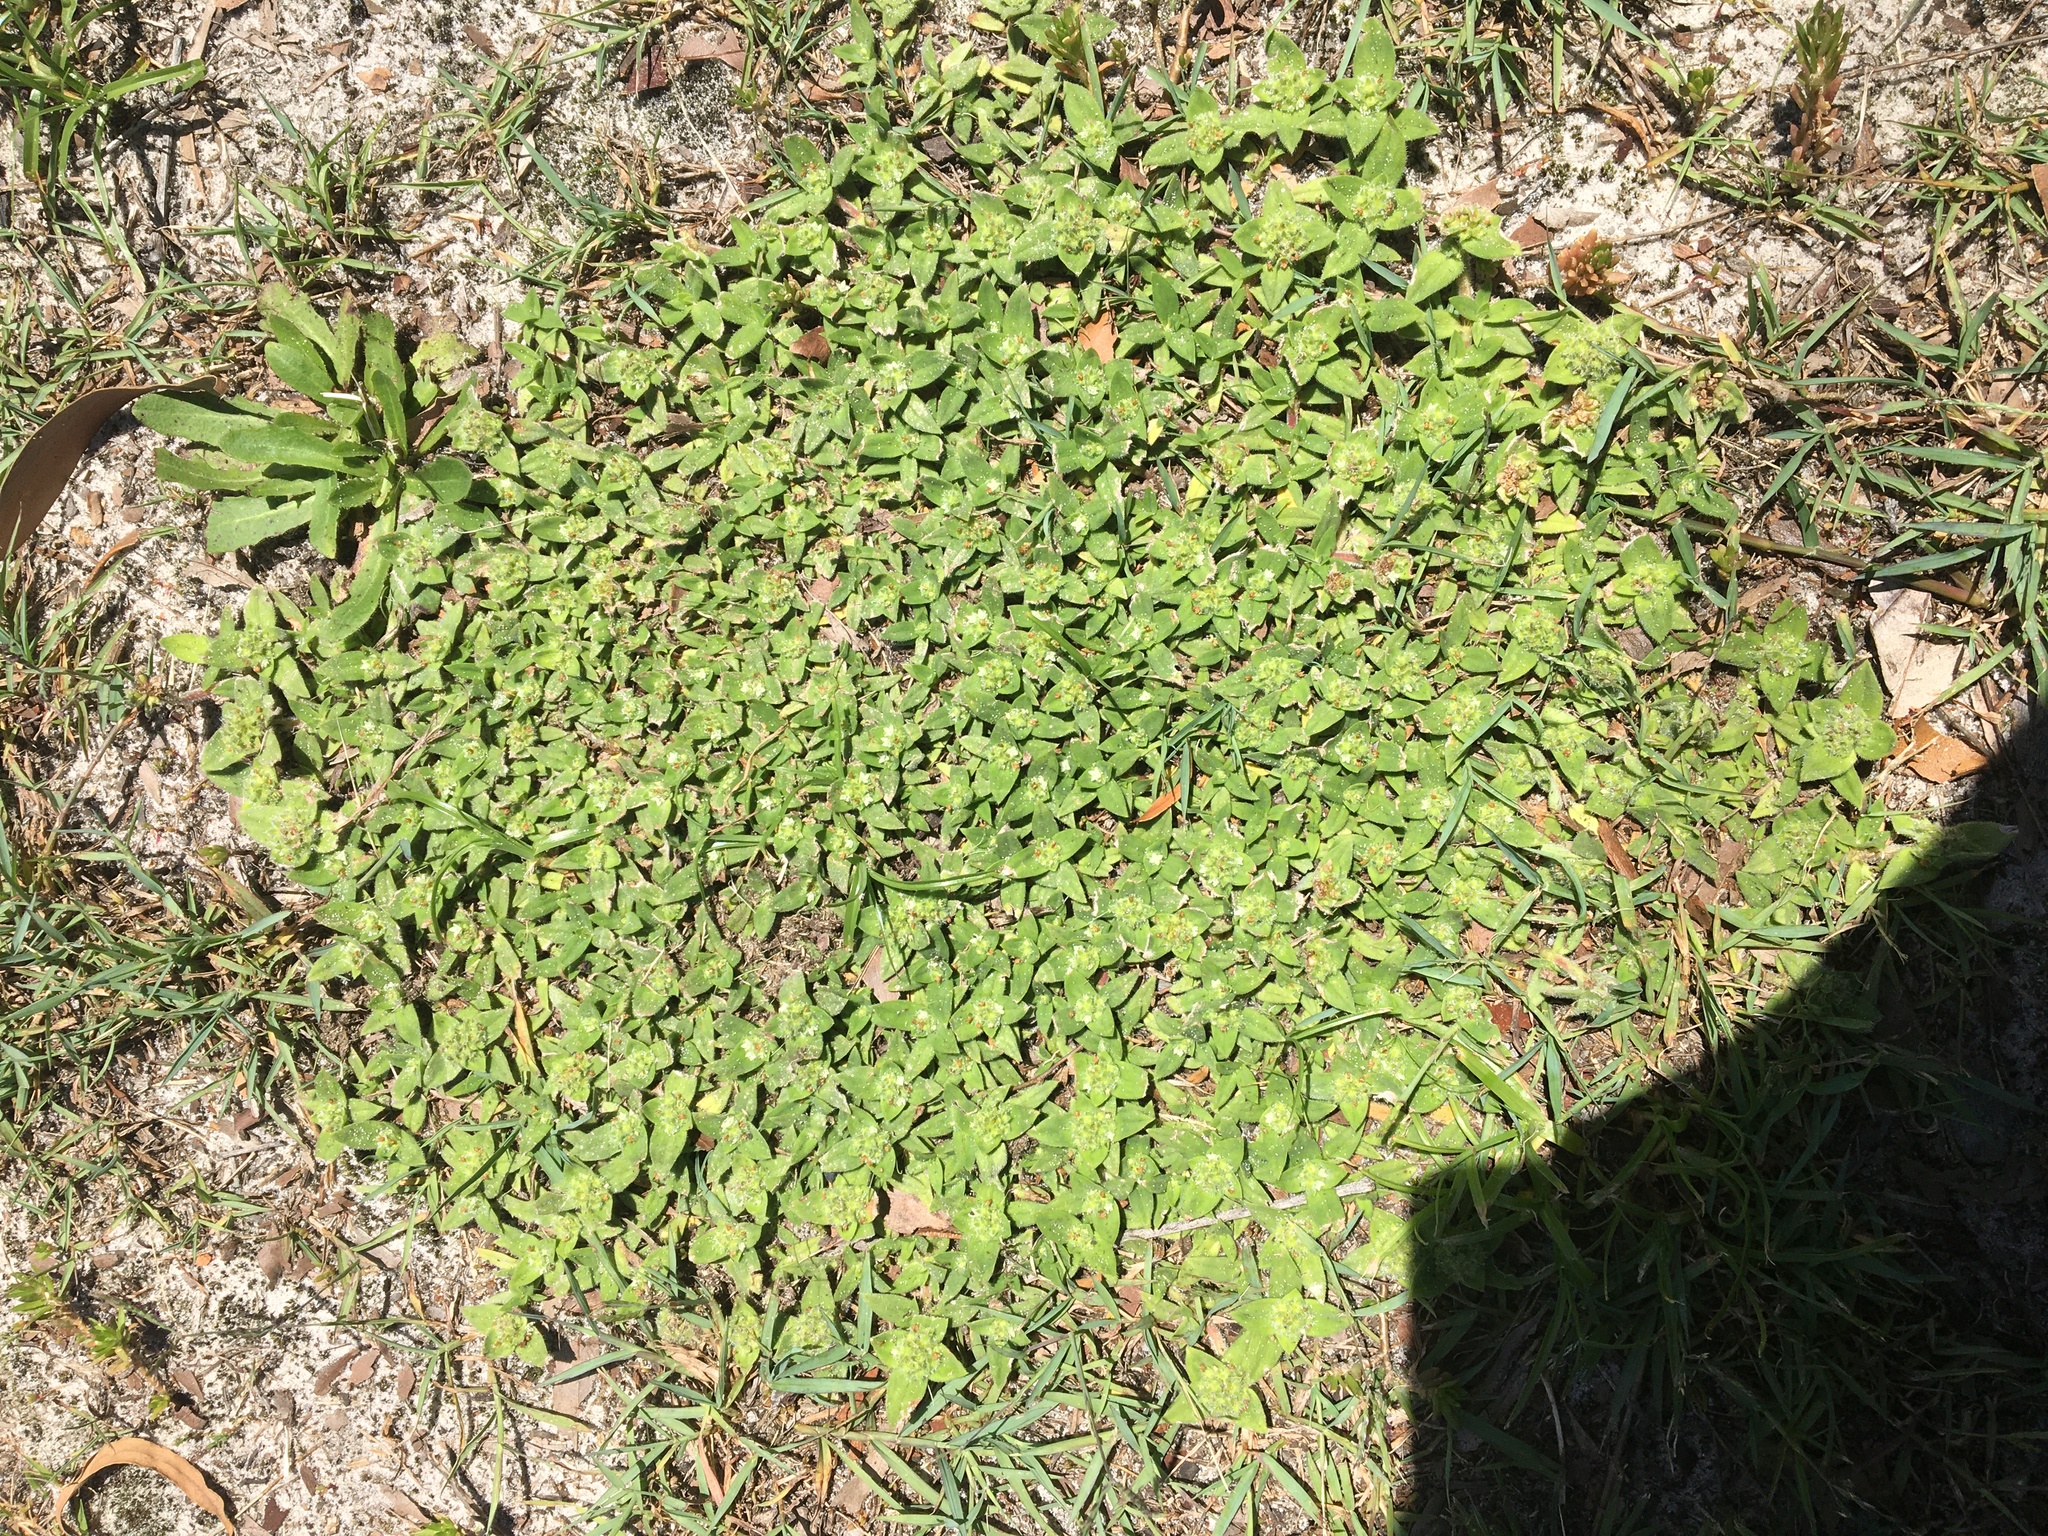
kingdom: Plantae
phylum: Tracheophyta
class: Magnoliopsida
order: Gentianales
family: Rubiaceae
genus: Richardia
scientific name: Richardia humistrata
